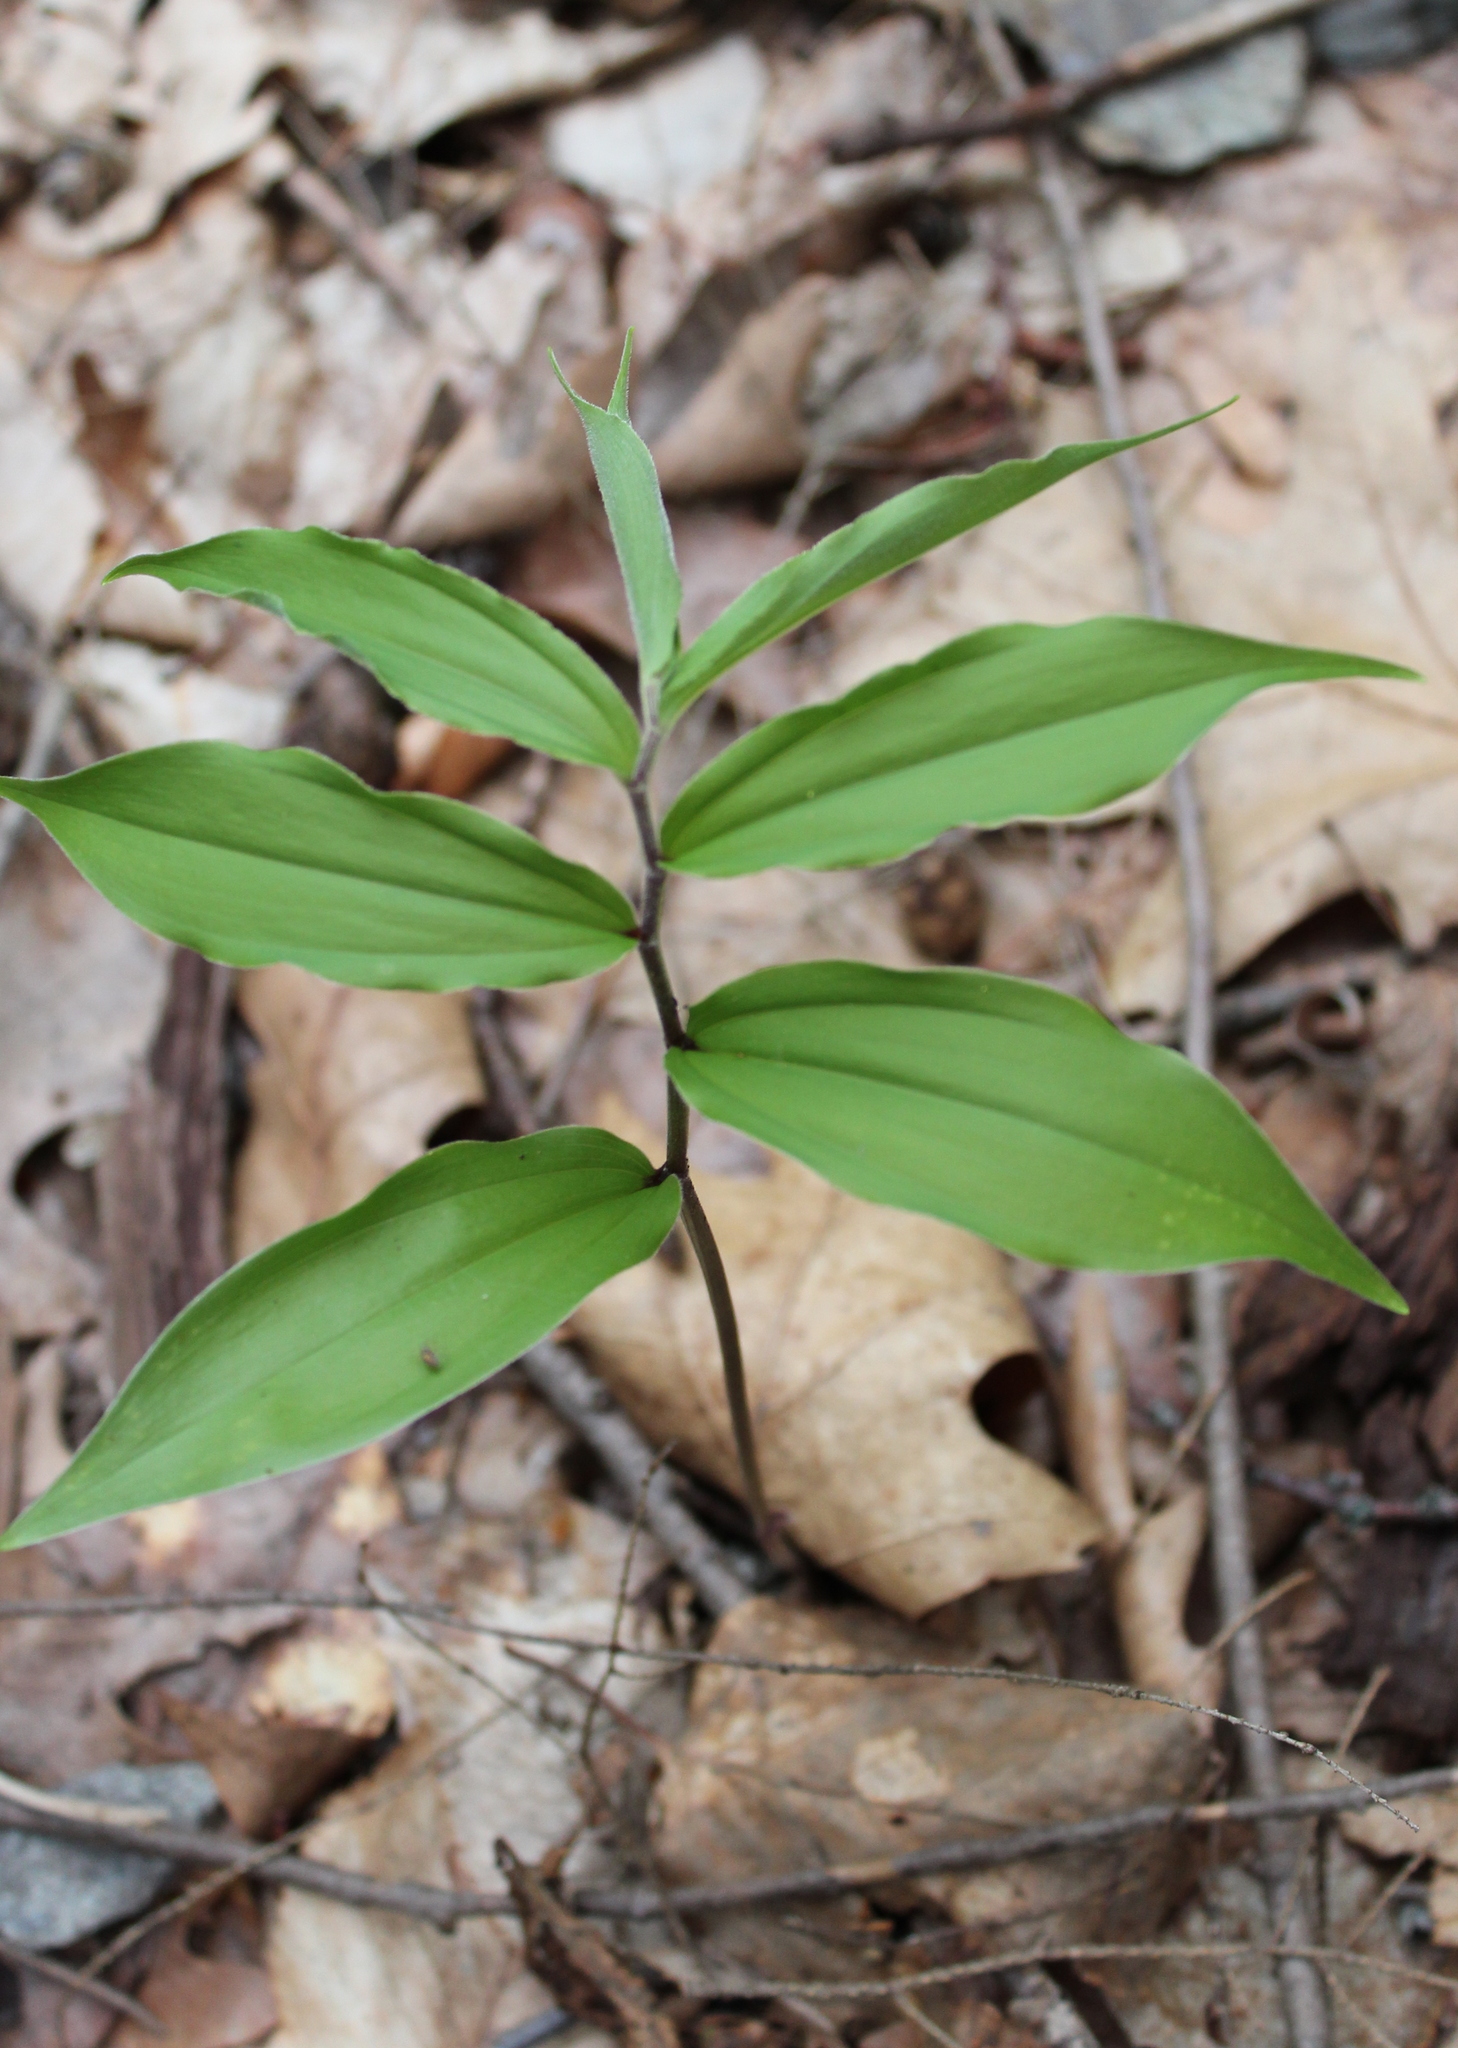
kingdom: Plantae
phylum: Tracheophyta
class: Liliopsida
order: Asparagales
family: Asparagaceae
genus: Maianthemum
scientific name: Maianthemum racemosum
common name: False spikenard
